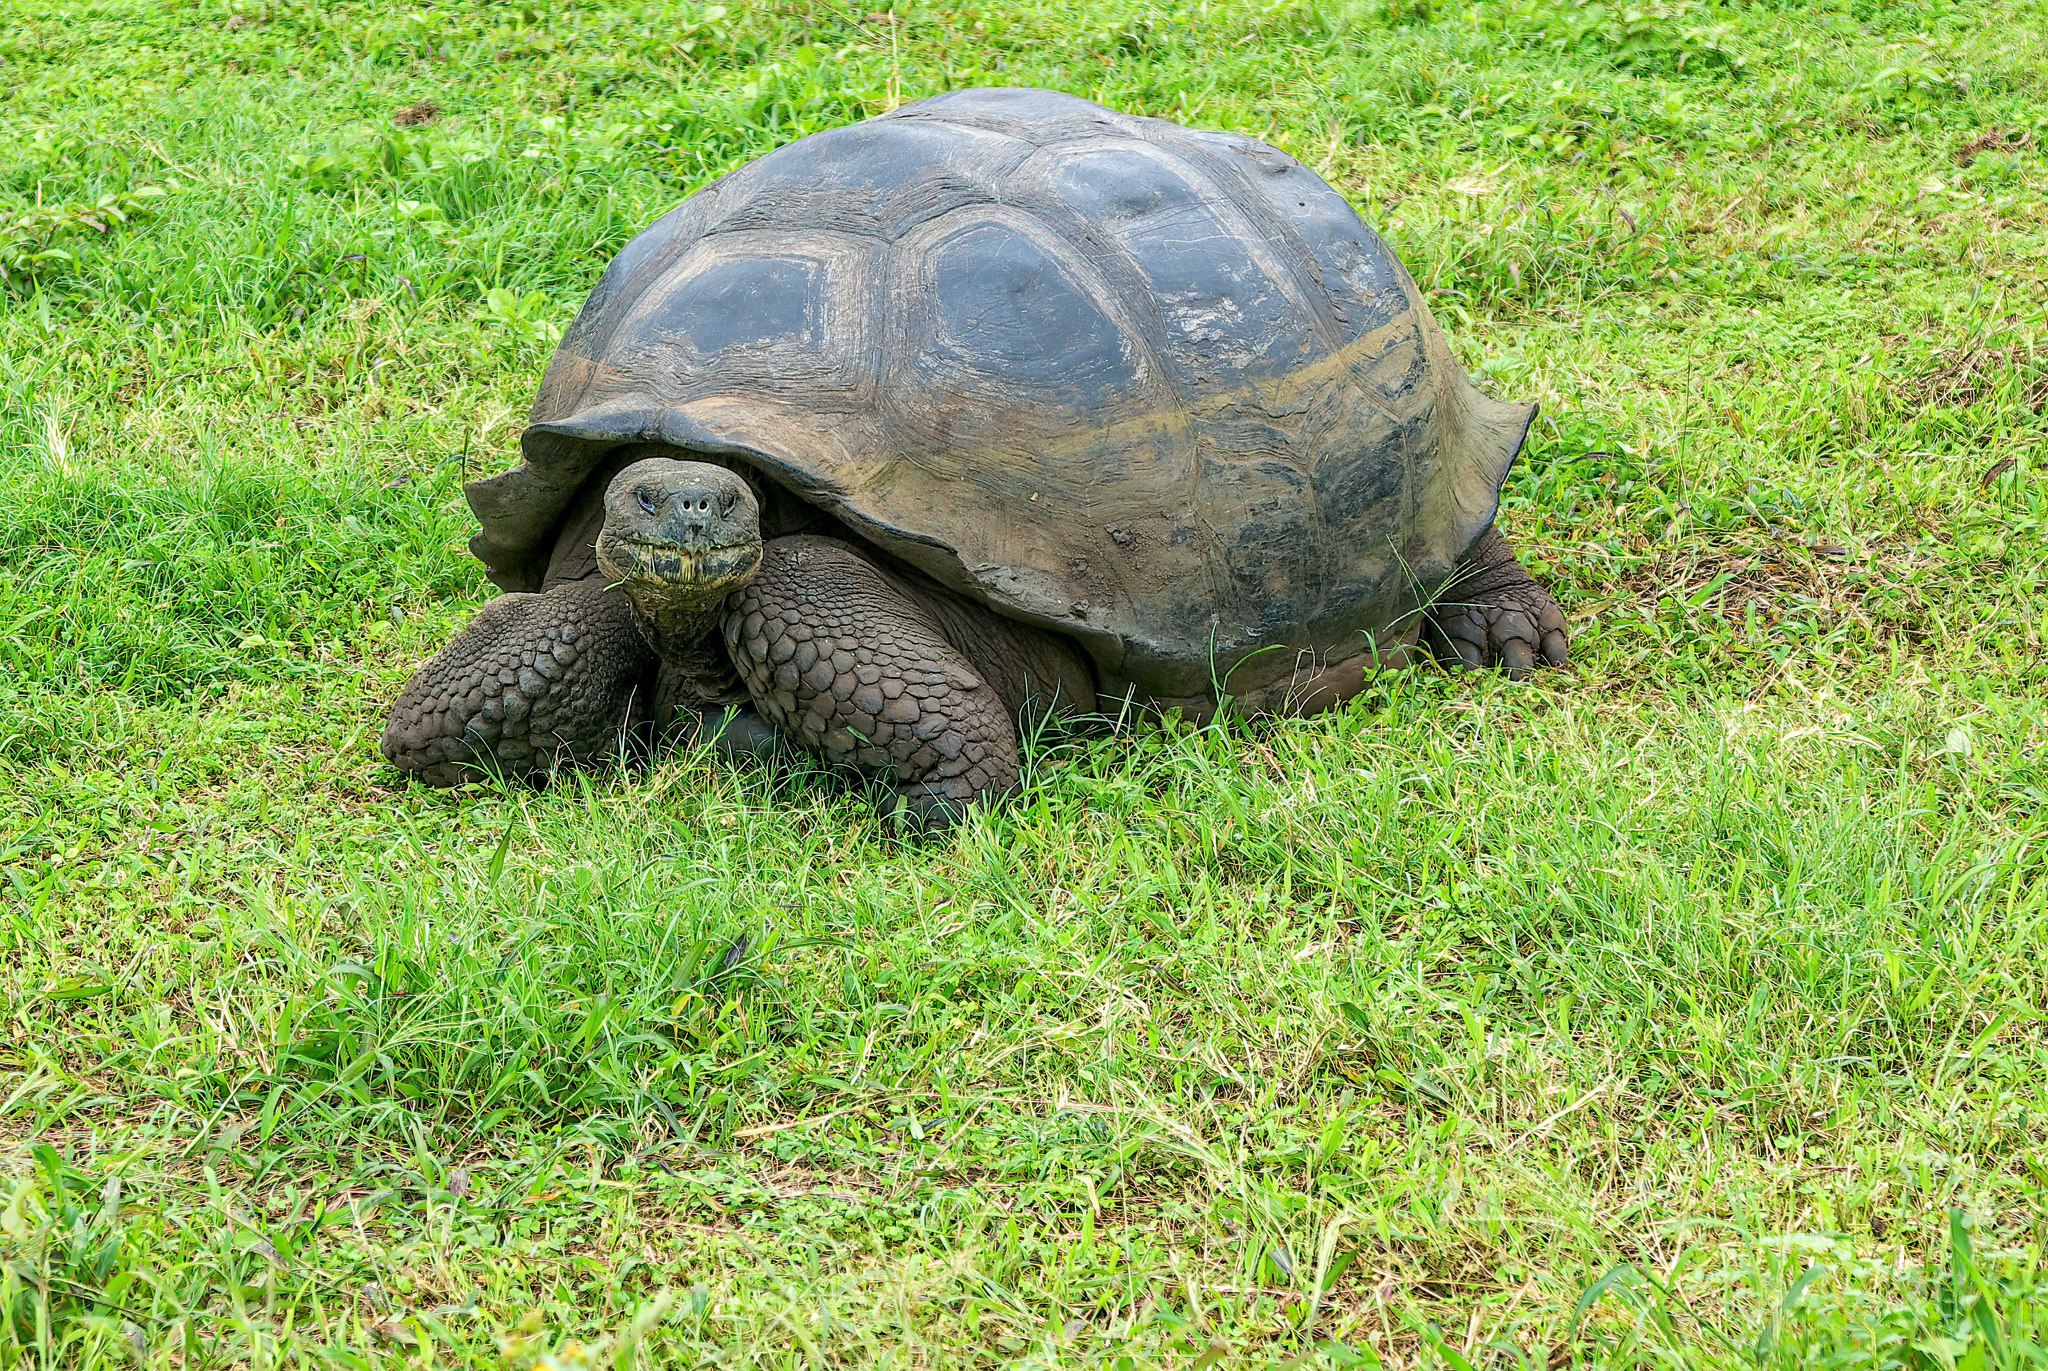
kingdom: Animalia
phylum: Chordata
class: Testudines
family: Testudinidae
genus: Chelonoidis
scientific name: Chelonoidis porteri
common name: Indefatigable island giant tortoise
